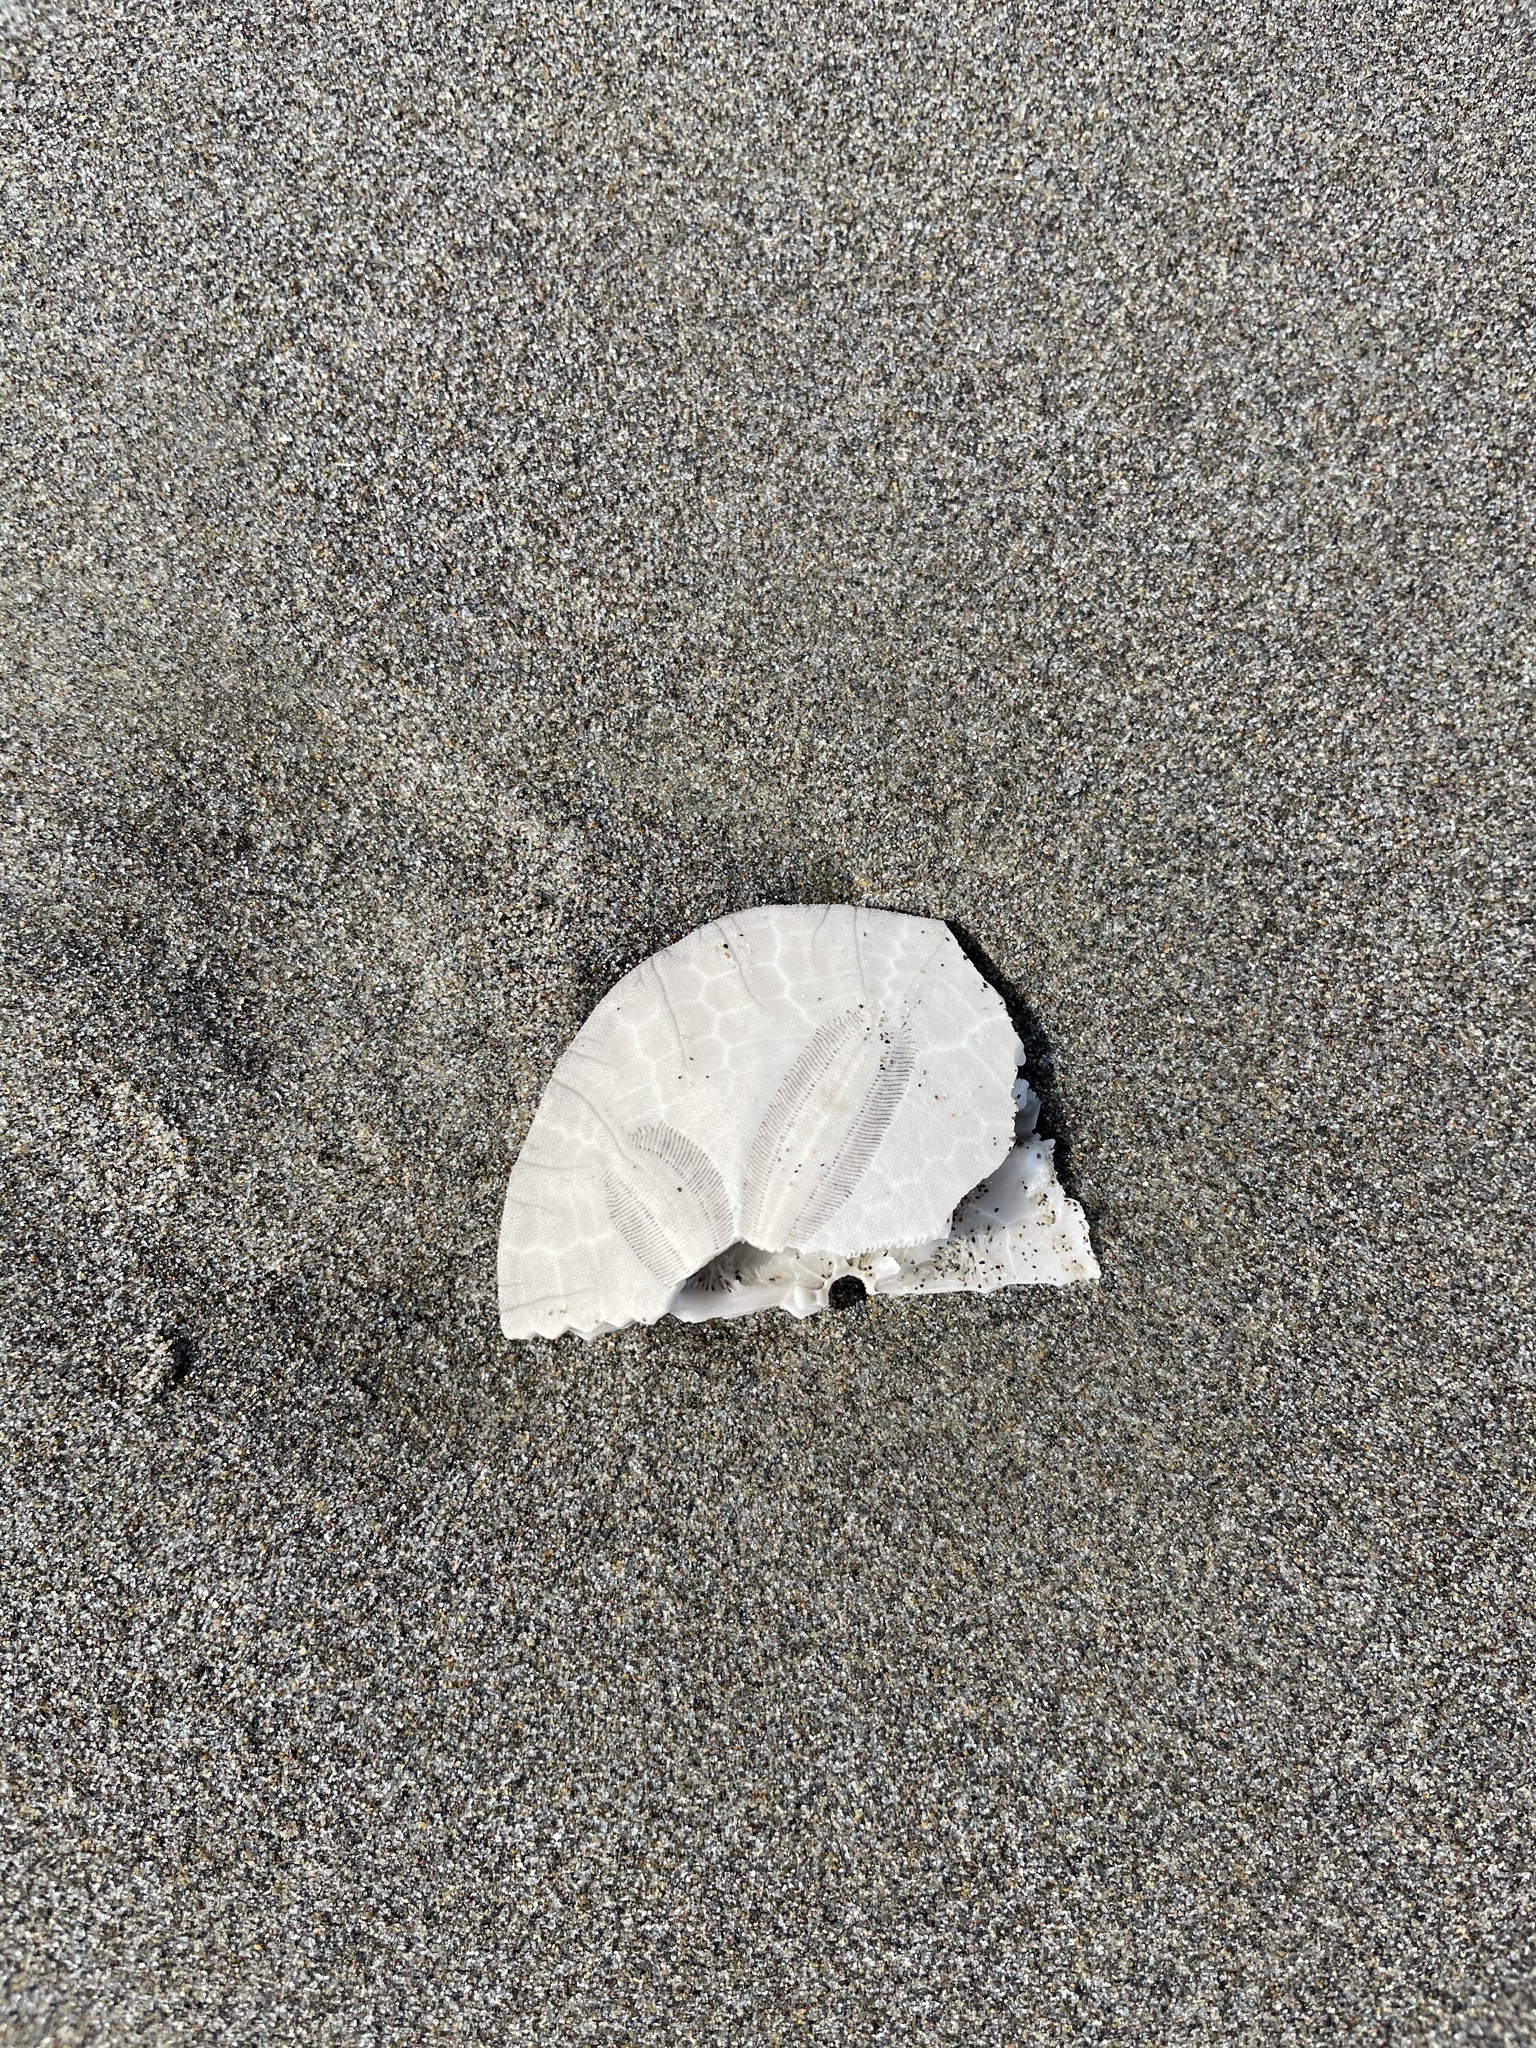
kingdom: Animalia
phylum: Echinodermata
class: Echinoidea
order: Echinolampadacea
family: Dendrasteridae
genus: Dendraster
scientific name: Dendraster excentricus
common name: Eccentric sand dollar sea urchin
